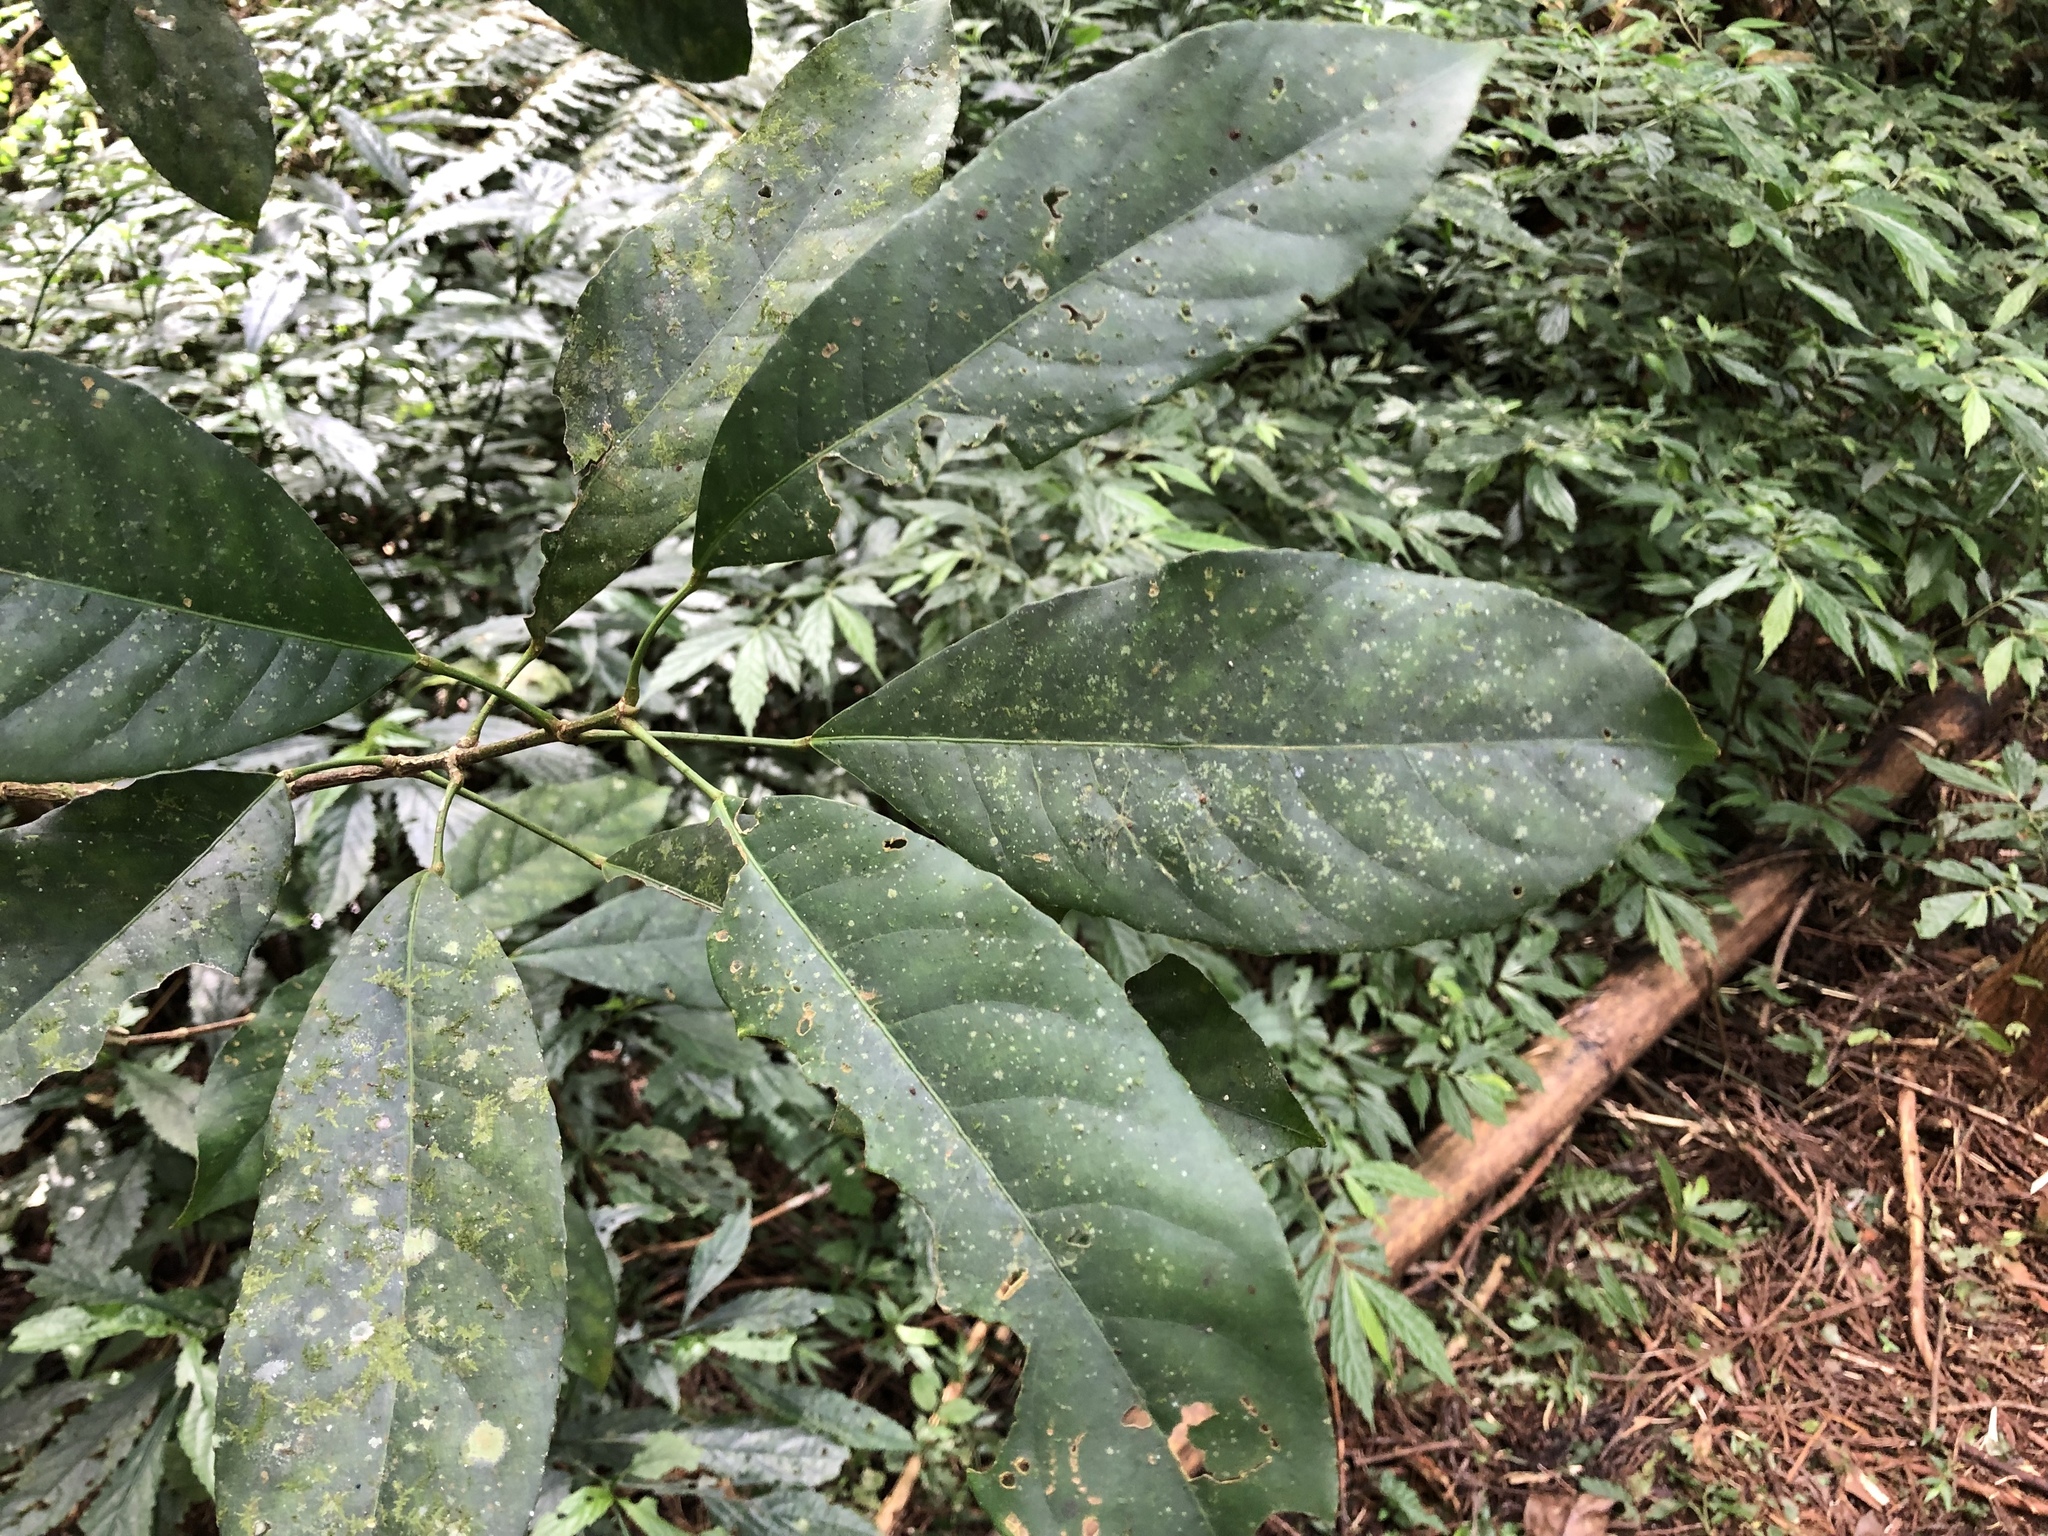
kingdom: Plantae
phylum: Tracheophyta
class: Magnoliopsida
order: Crossosomatales
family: Staphyleaceae
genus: Turpinia
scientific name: Turpinia formosana
